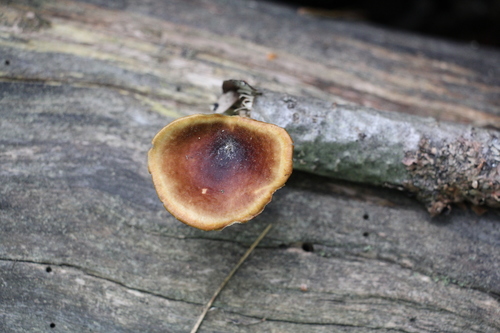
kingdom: Fungi
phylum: Basidiomycota
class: Agaricomycetes
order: Polyporales
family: Polyporaceae
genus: Picipes
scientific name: Picipes
